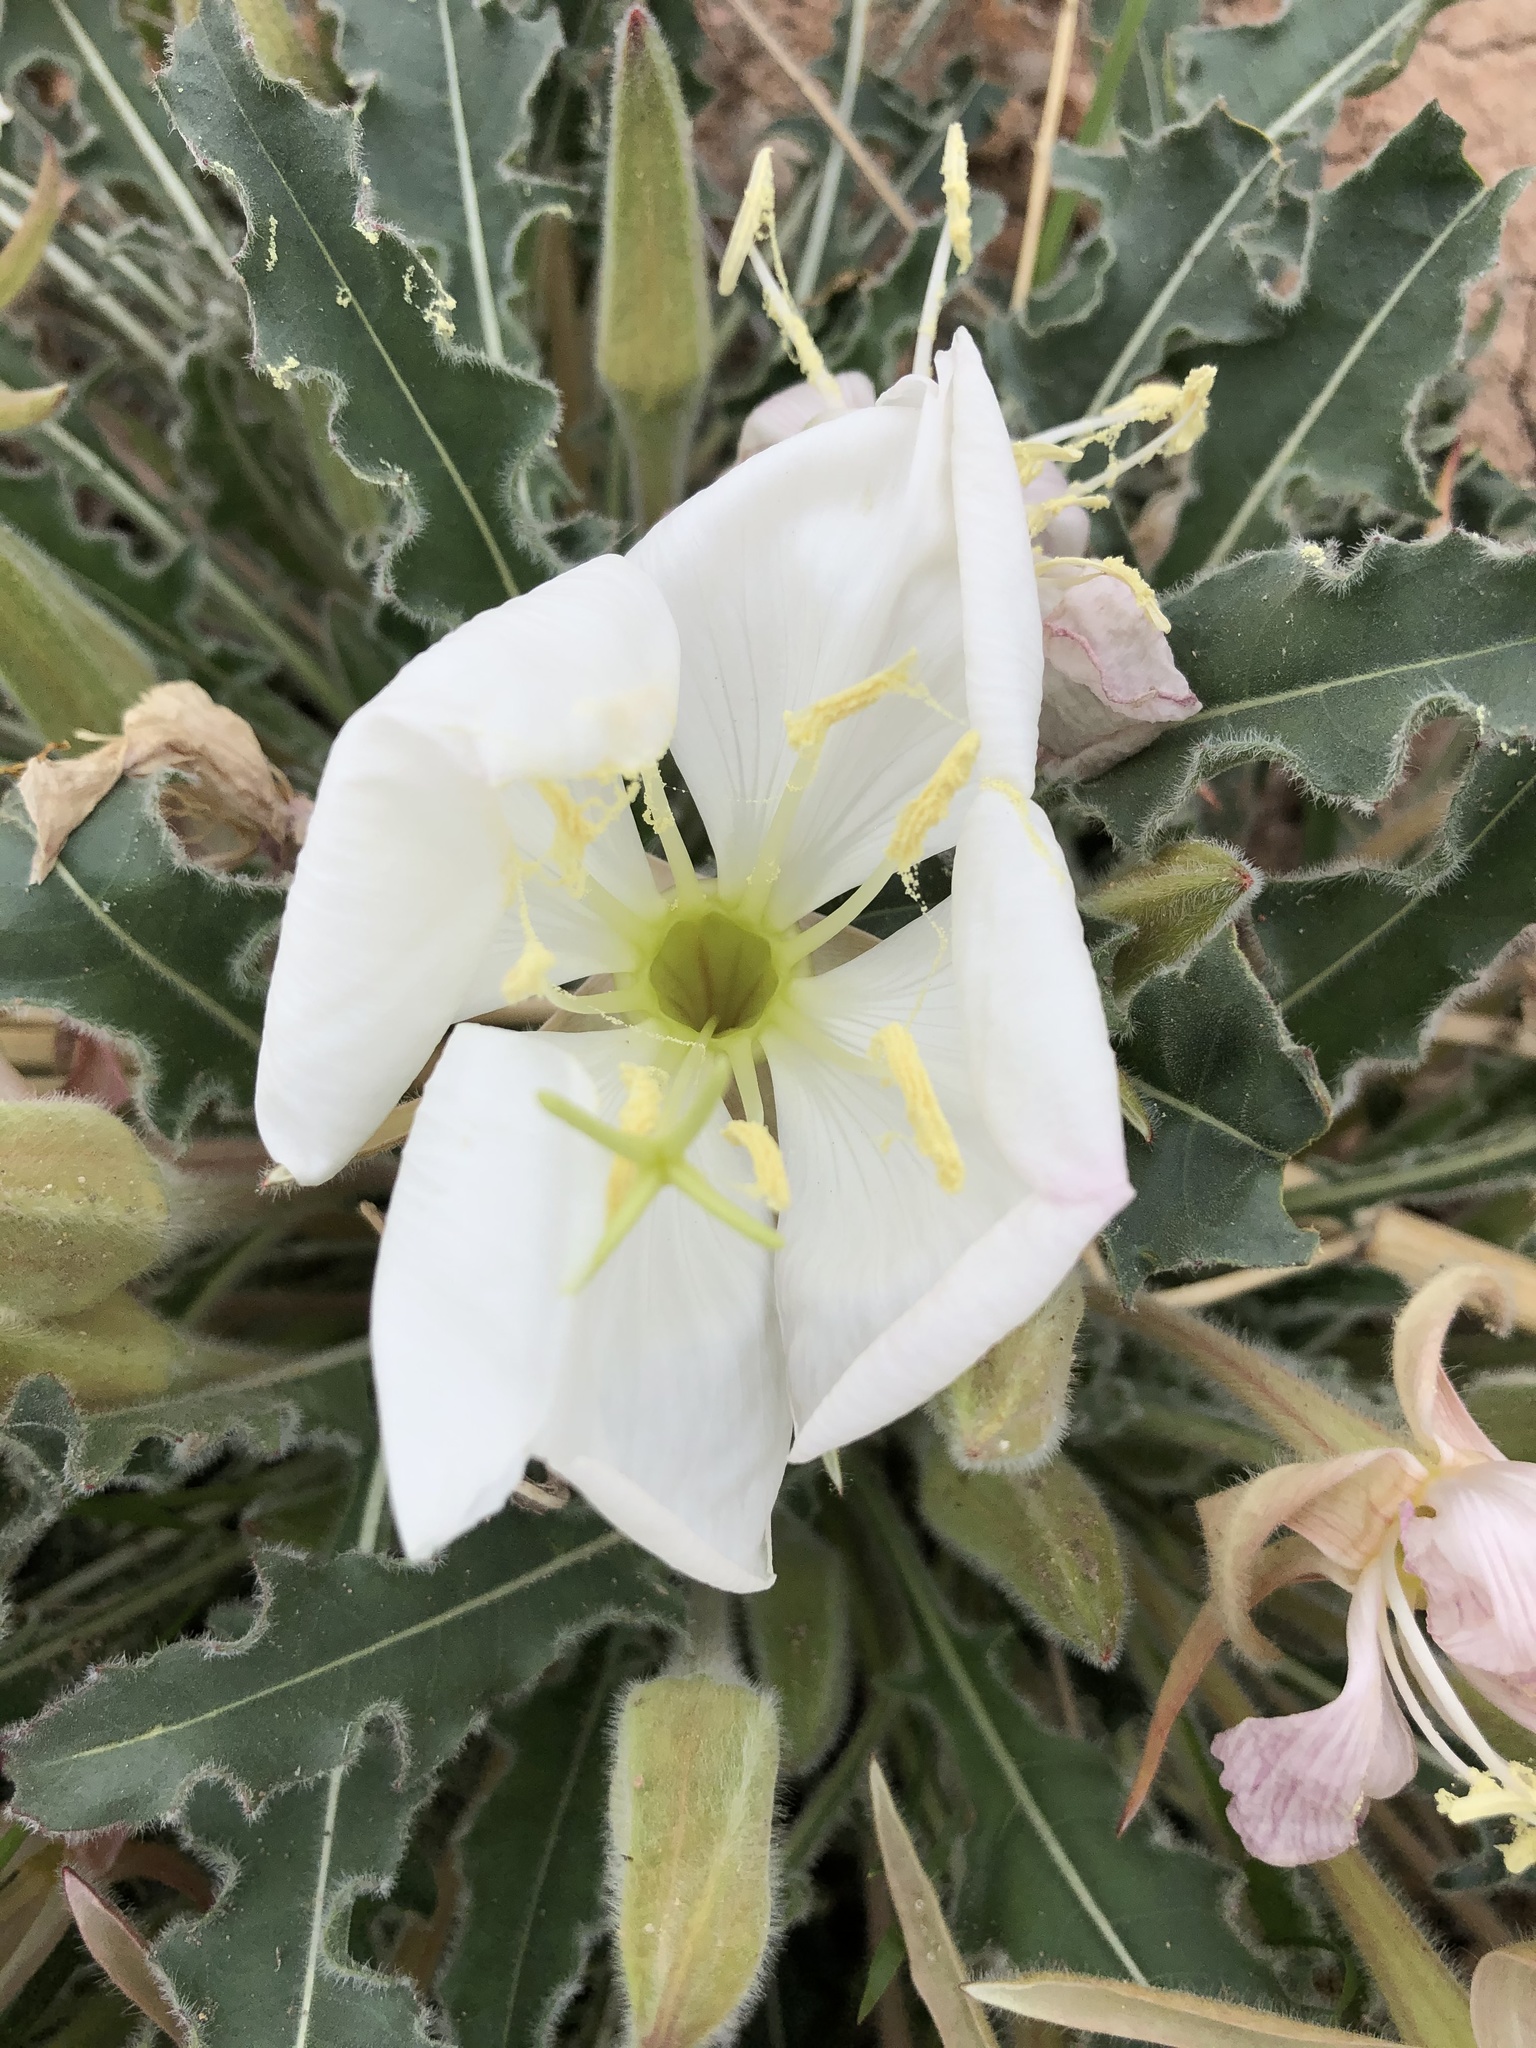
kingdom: Plantae
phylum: Tracheophyta
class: Magnoliopsida
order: Myrtales
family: Onagraceae
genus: Oenothera
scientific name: Oenothera cespitosa
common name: Tufted evening-primrose
